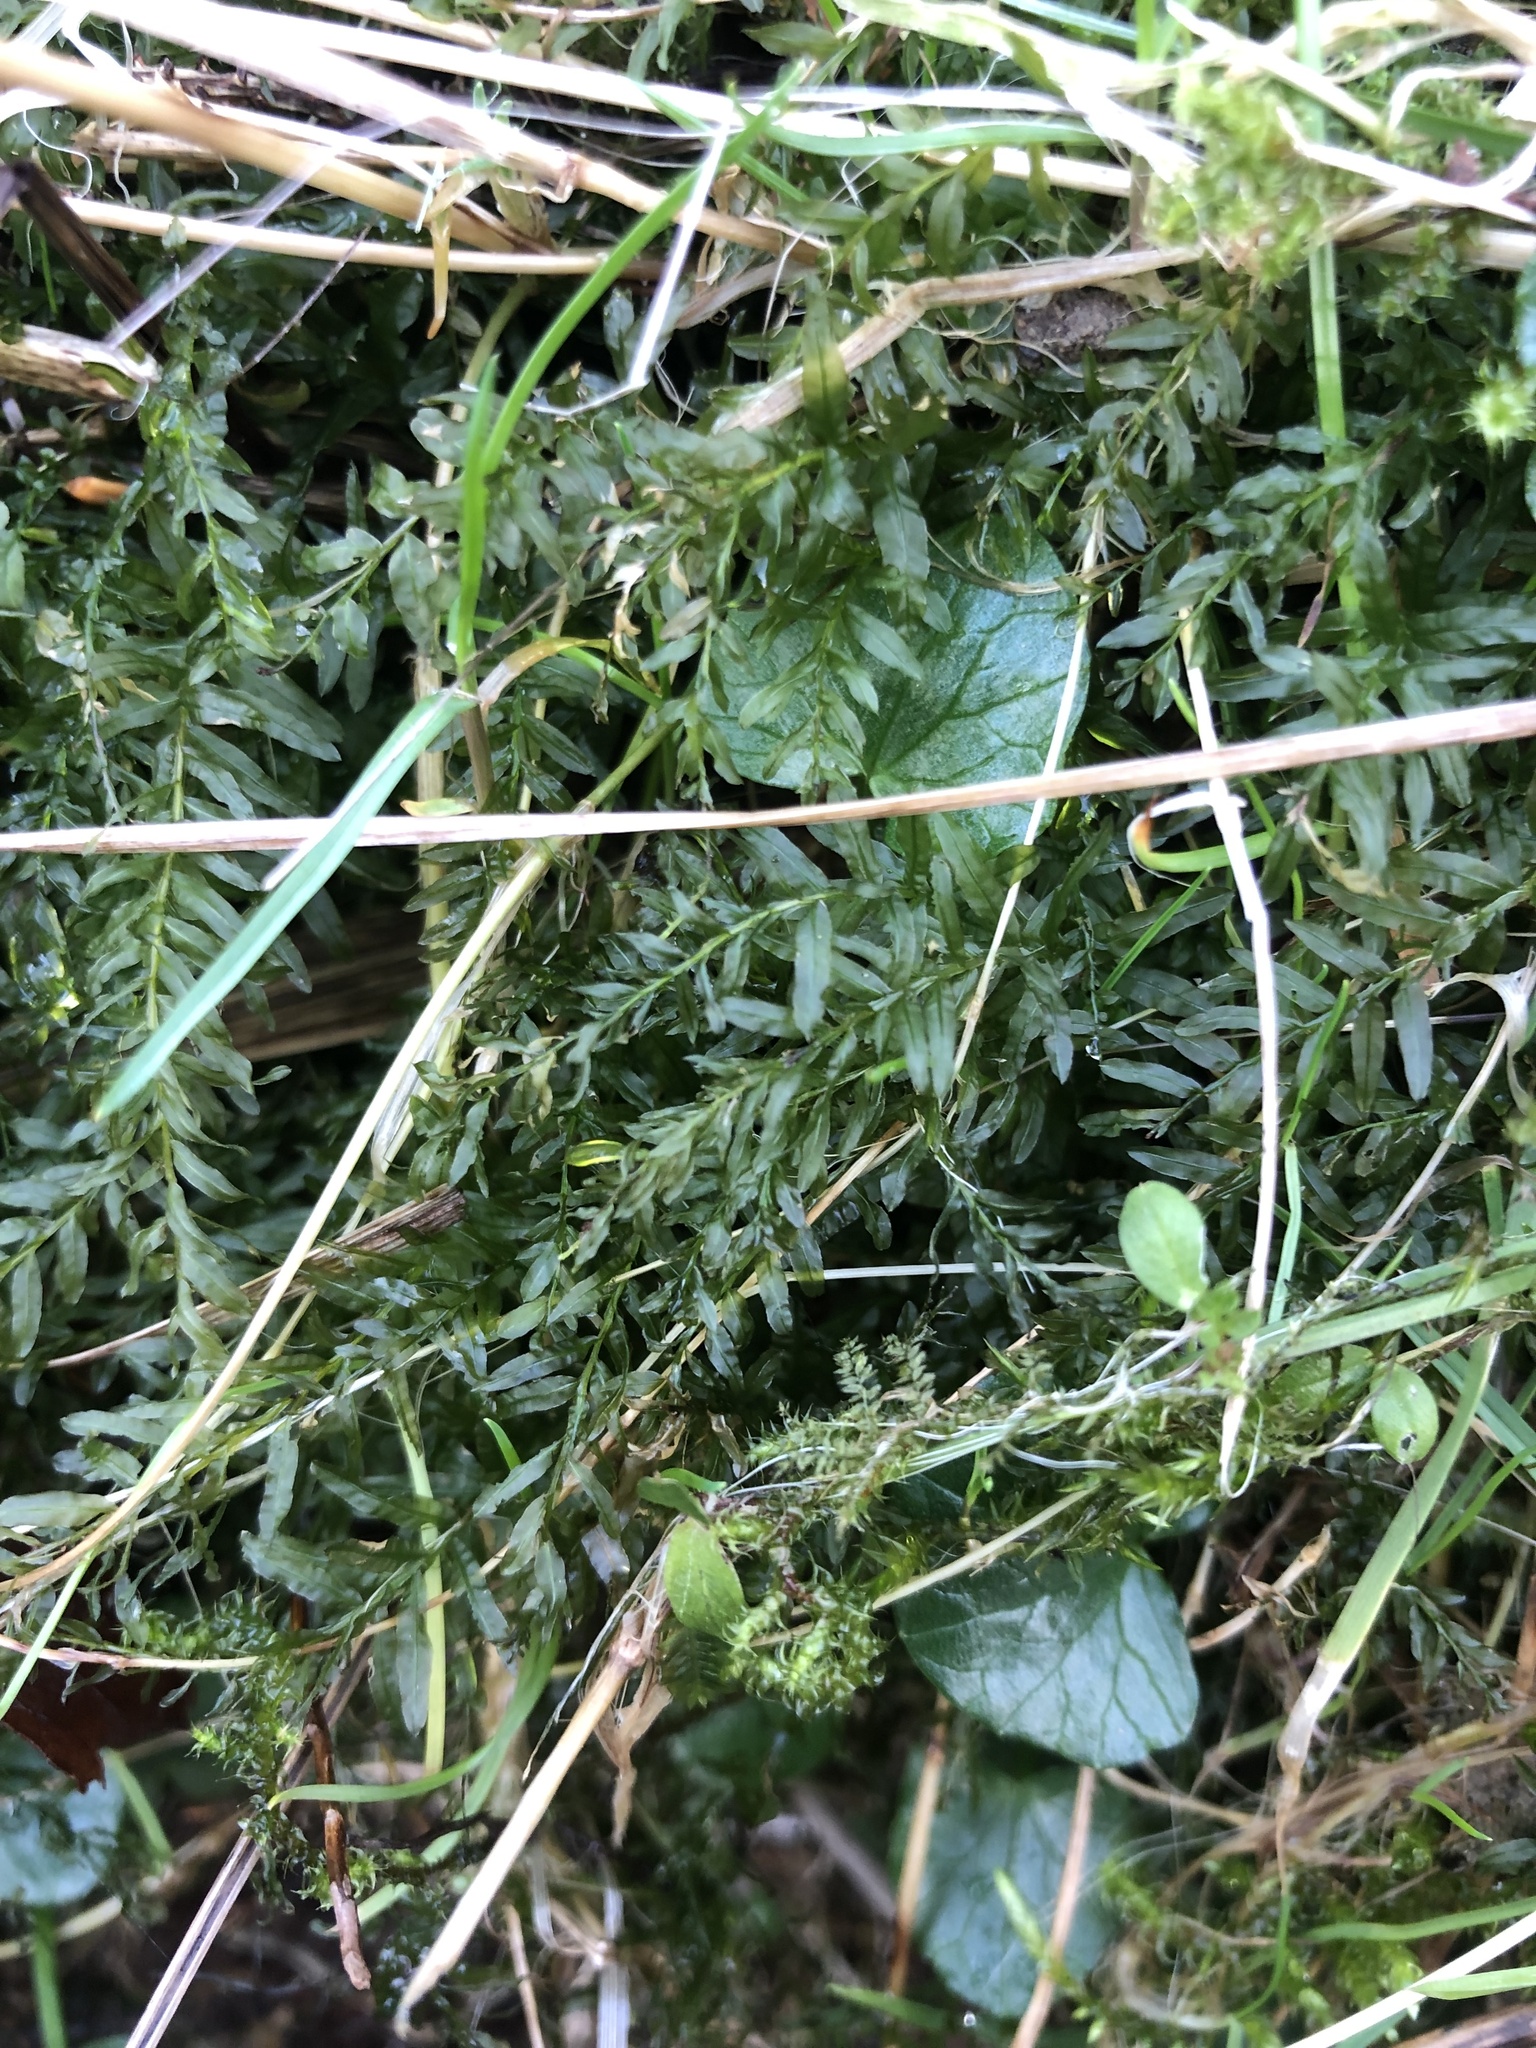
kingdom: Plantae
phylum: Bryophyta
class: Bryopsida
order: Bryales
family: Mniaceae
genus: Plagiomnium
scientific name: Plagiomnium undulatum
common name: Hart's-tongue thyme-moss
